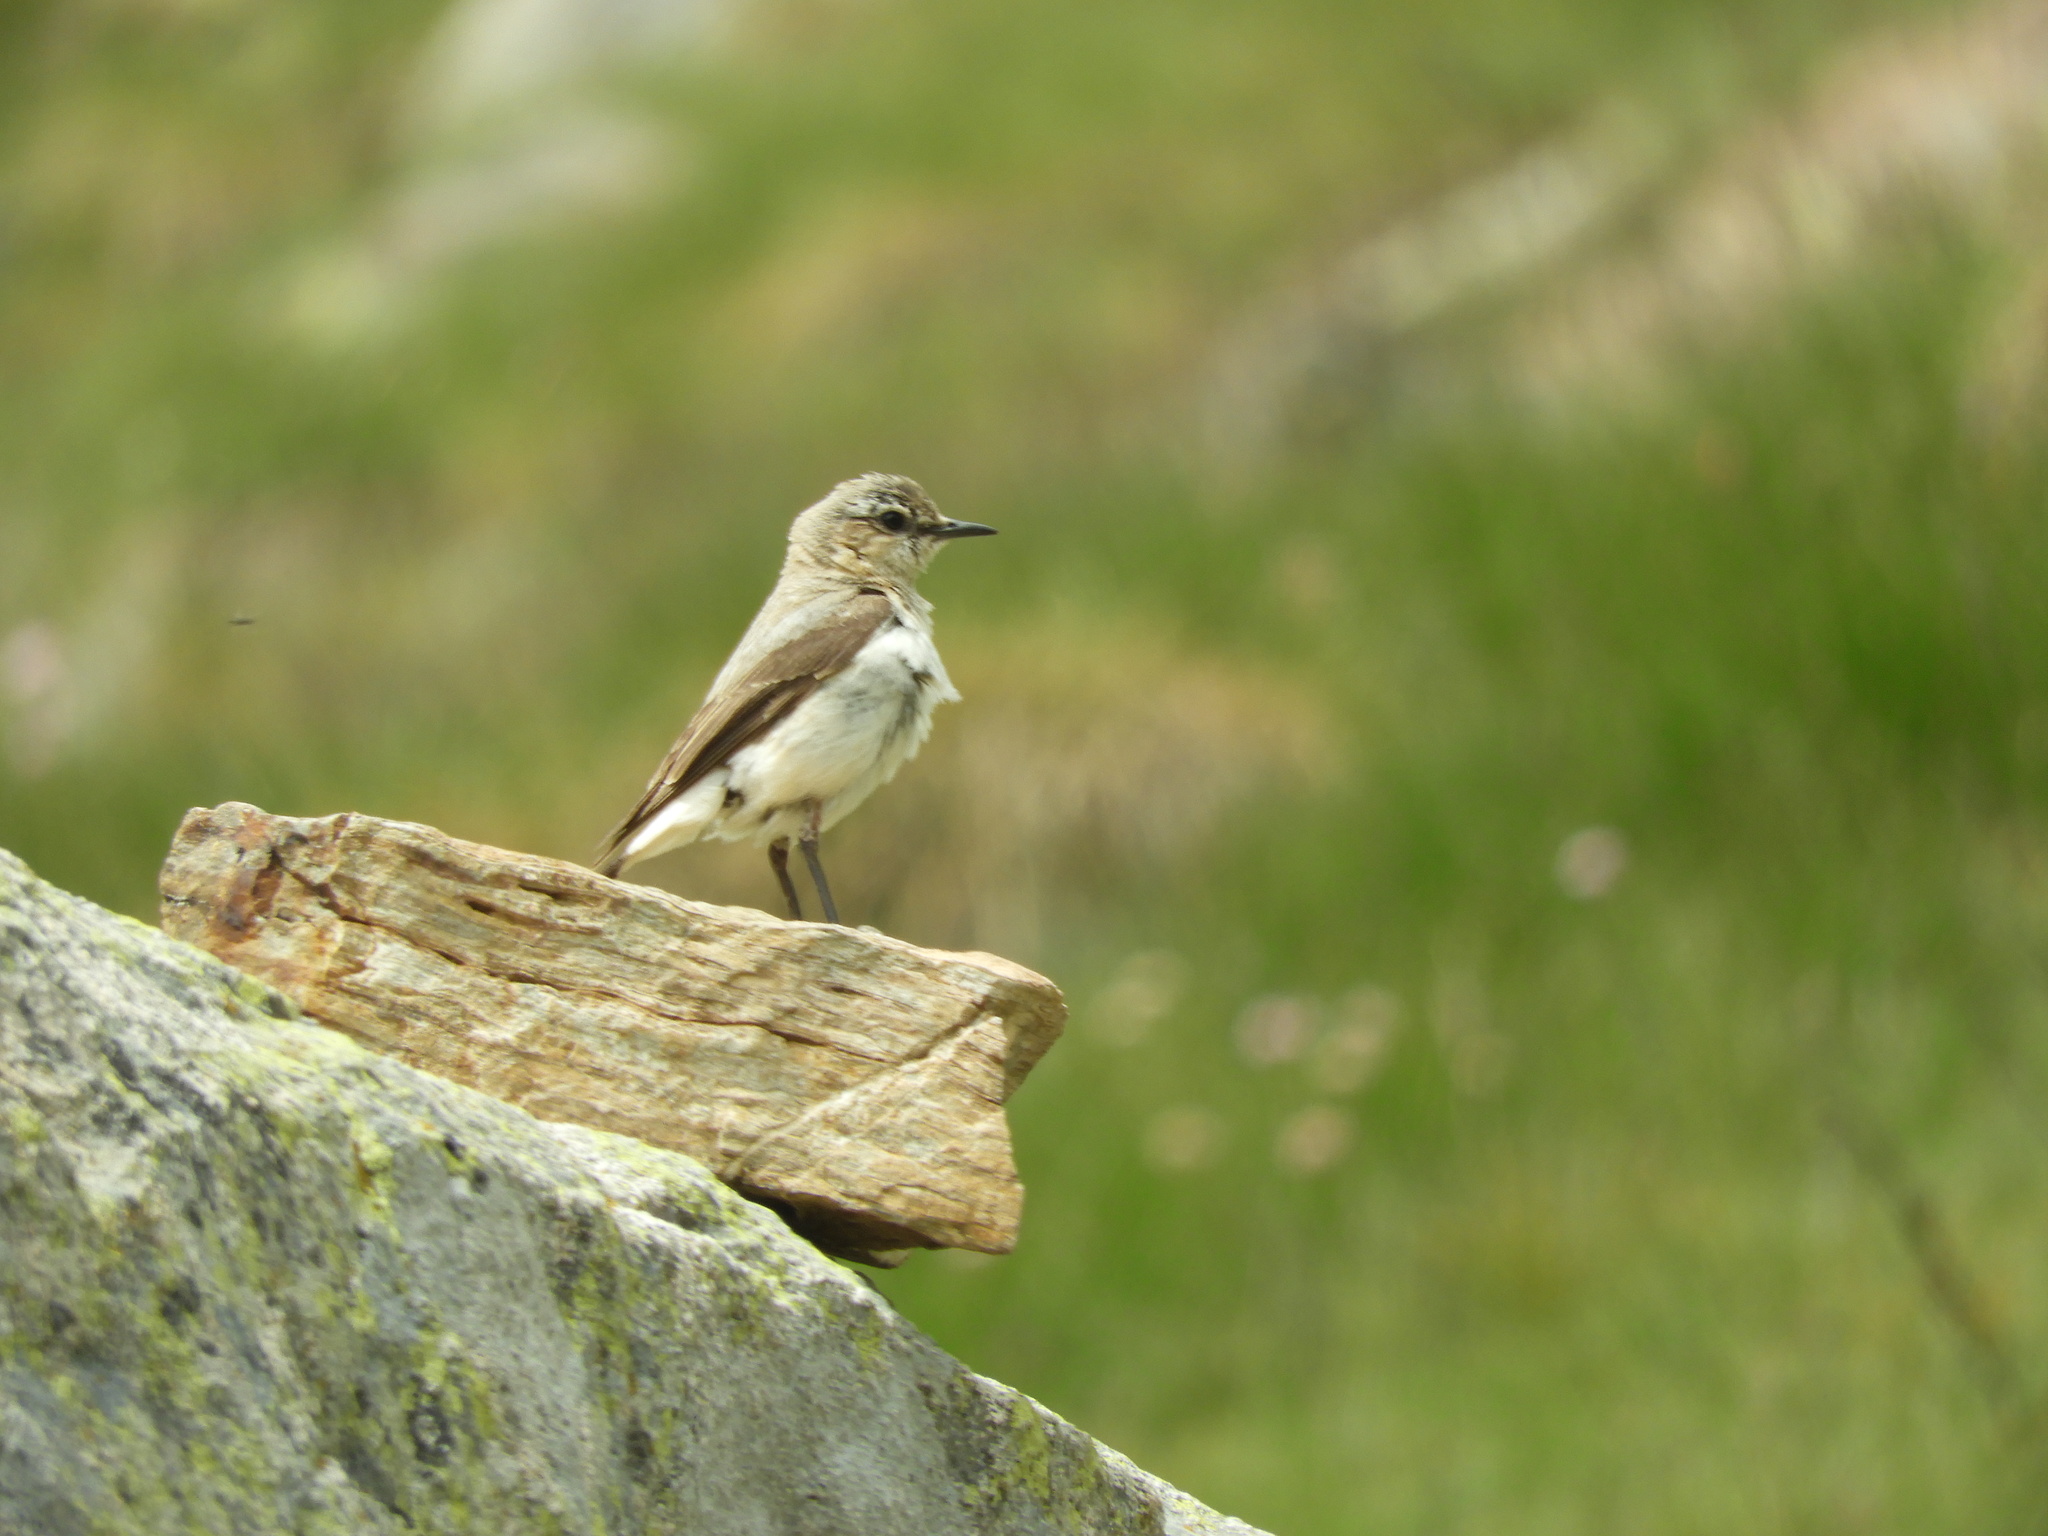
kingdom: Animalia
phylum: Chordata
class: Aves
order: Passeriformes
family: Muscicapidae
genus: Oenanthe
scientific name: Oenanthe oenanthe
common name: Northern wheatear
